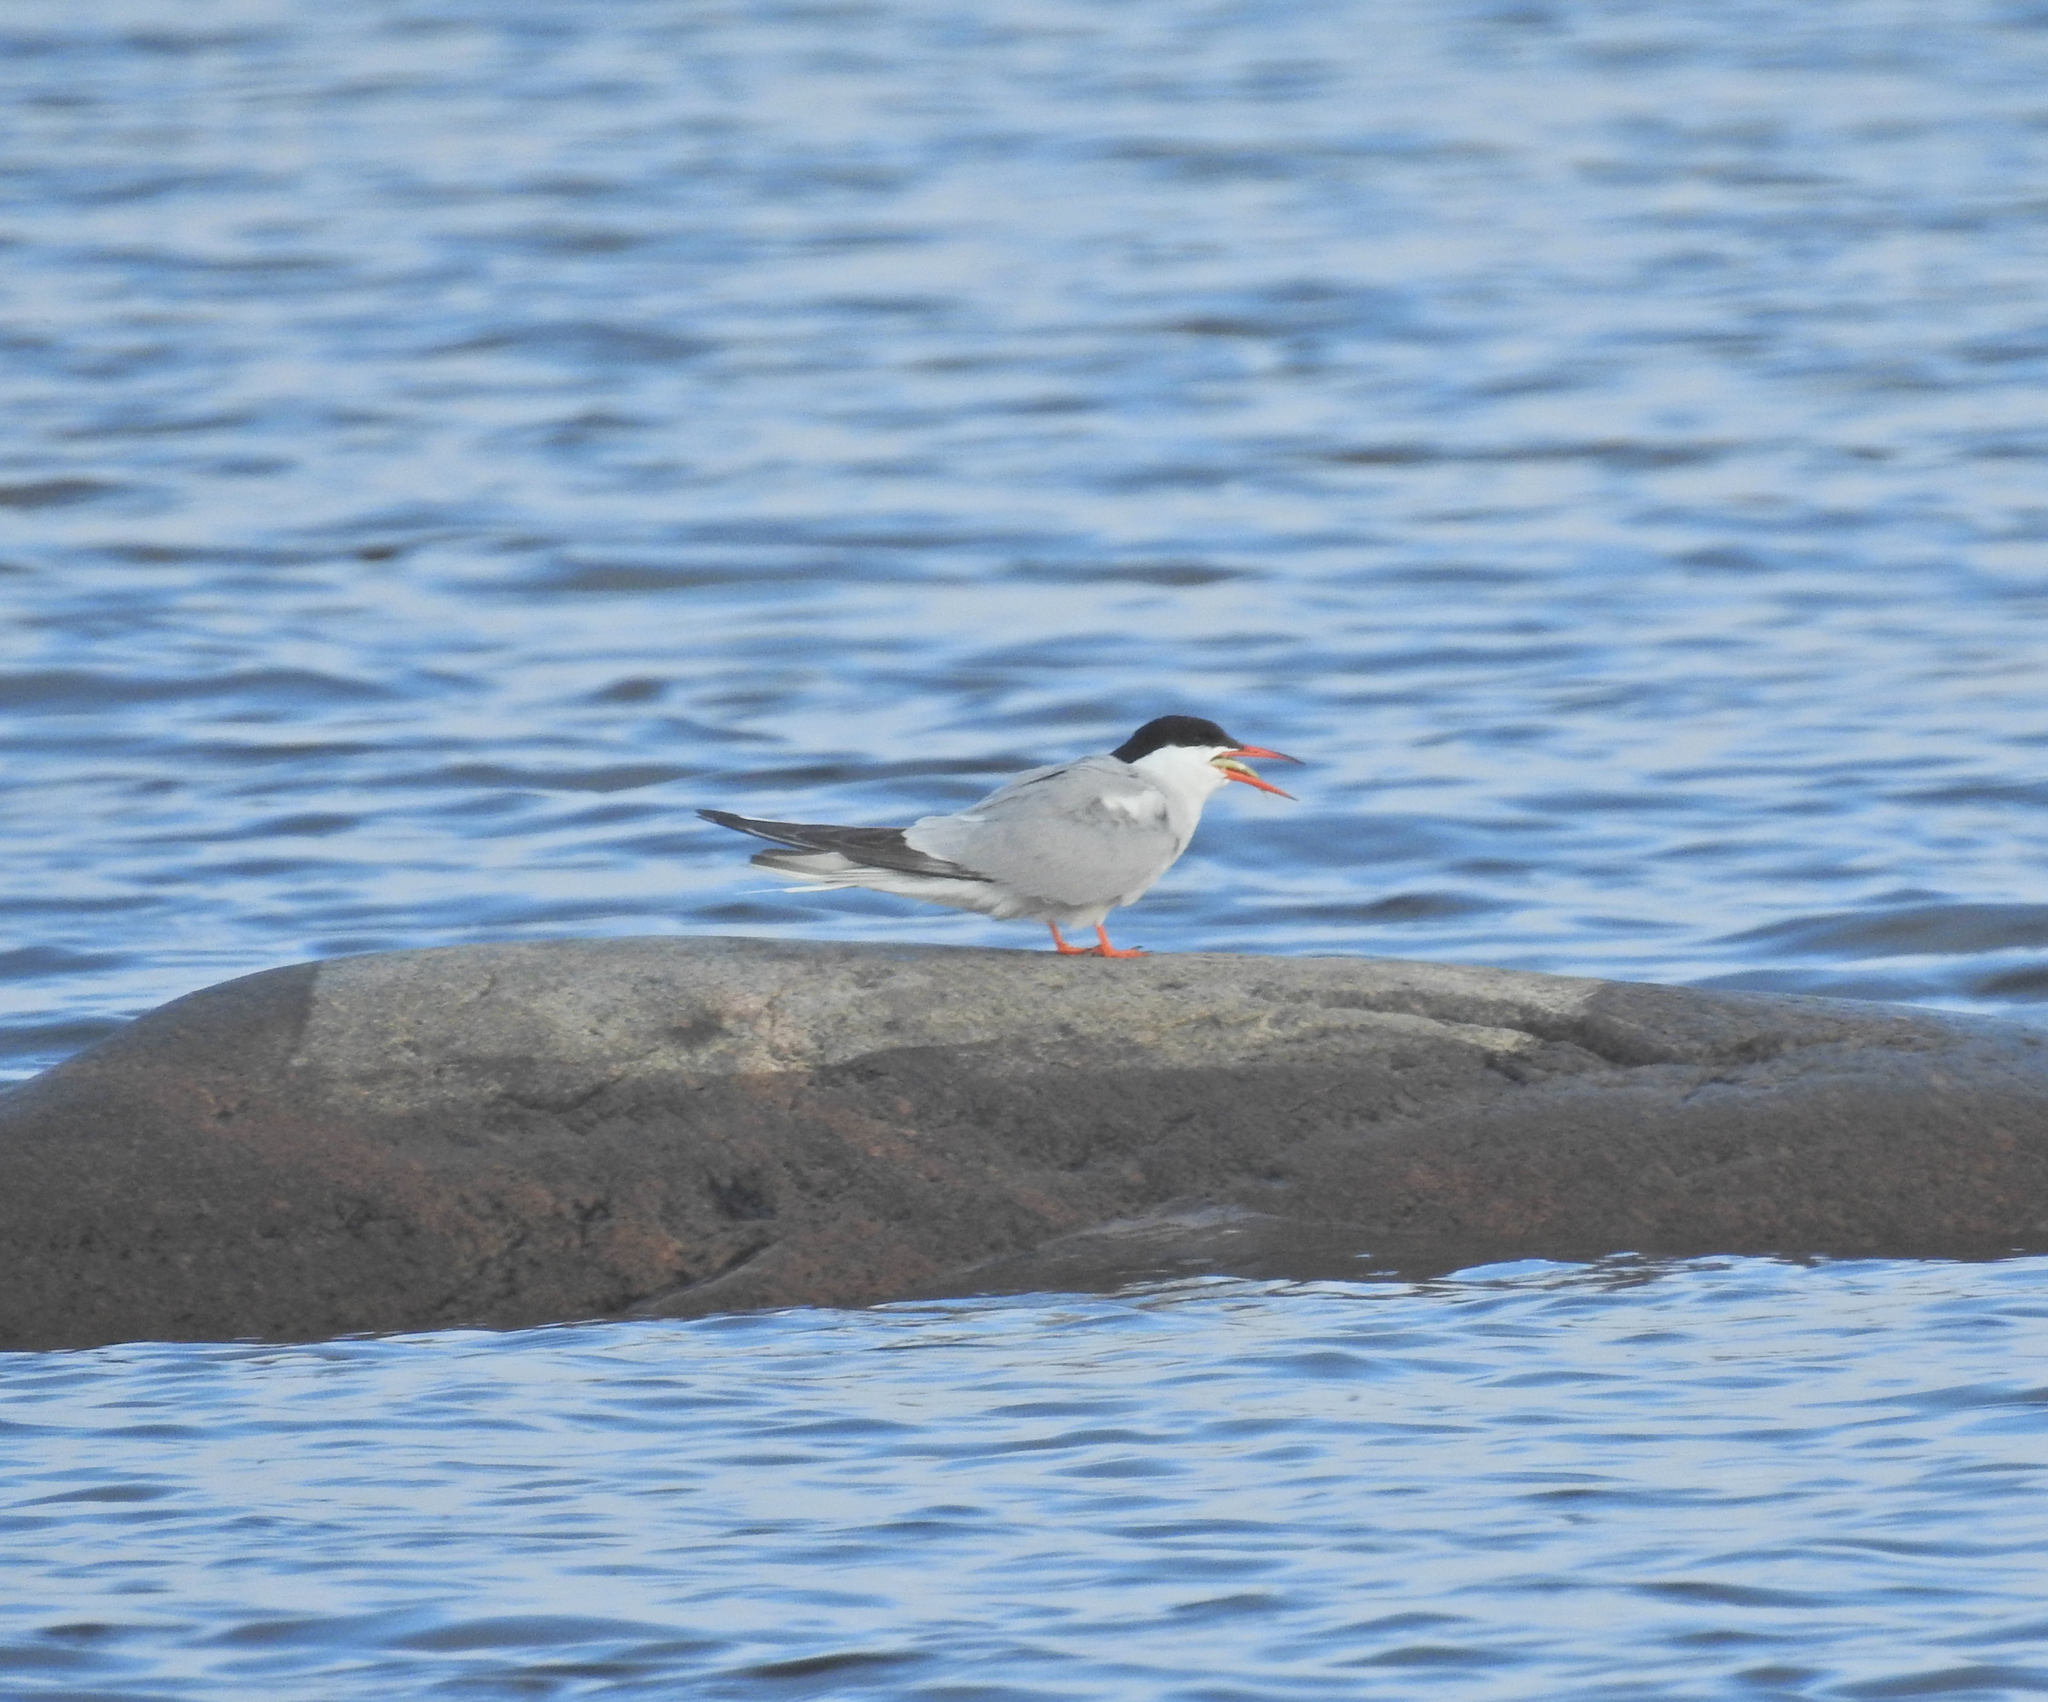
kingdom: Animalia
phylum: Chordata
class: Aves
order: Charadriiformes
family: Laridae
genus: Sterna
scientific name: Sterna hirundo
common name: Common tern
